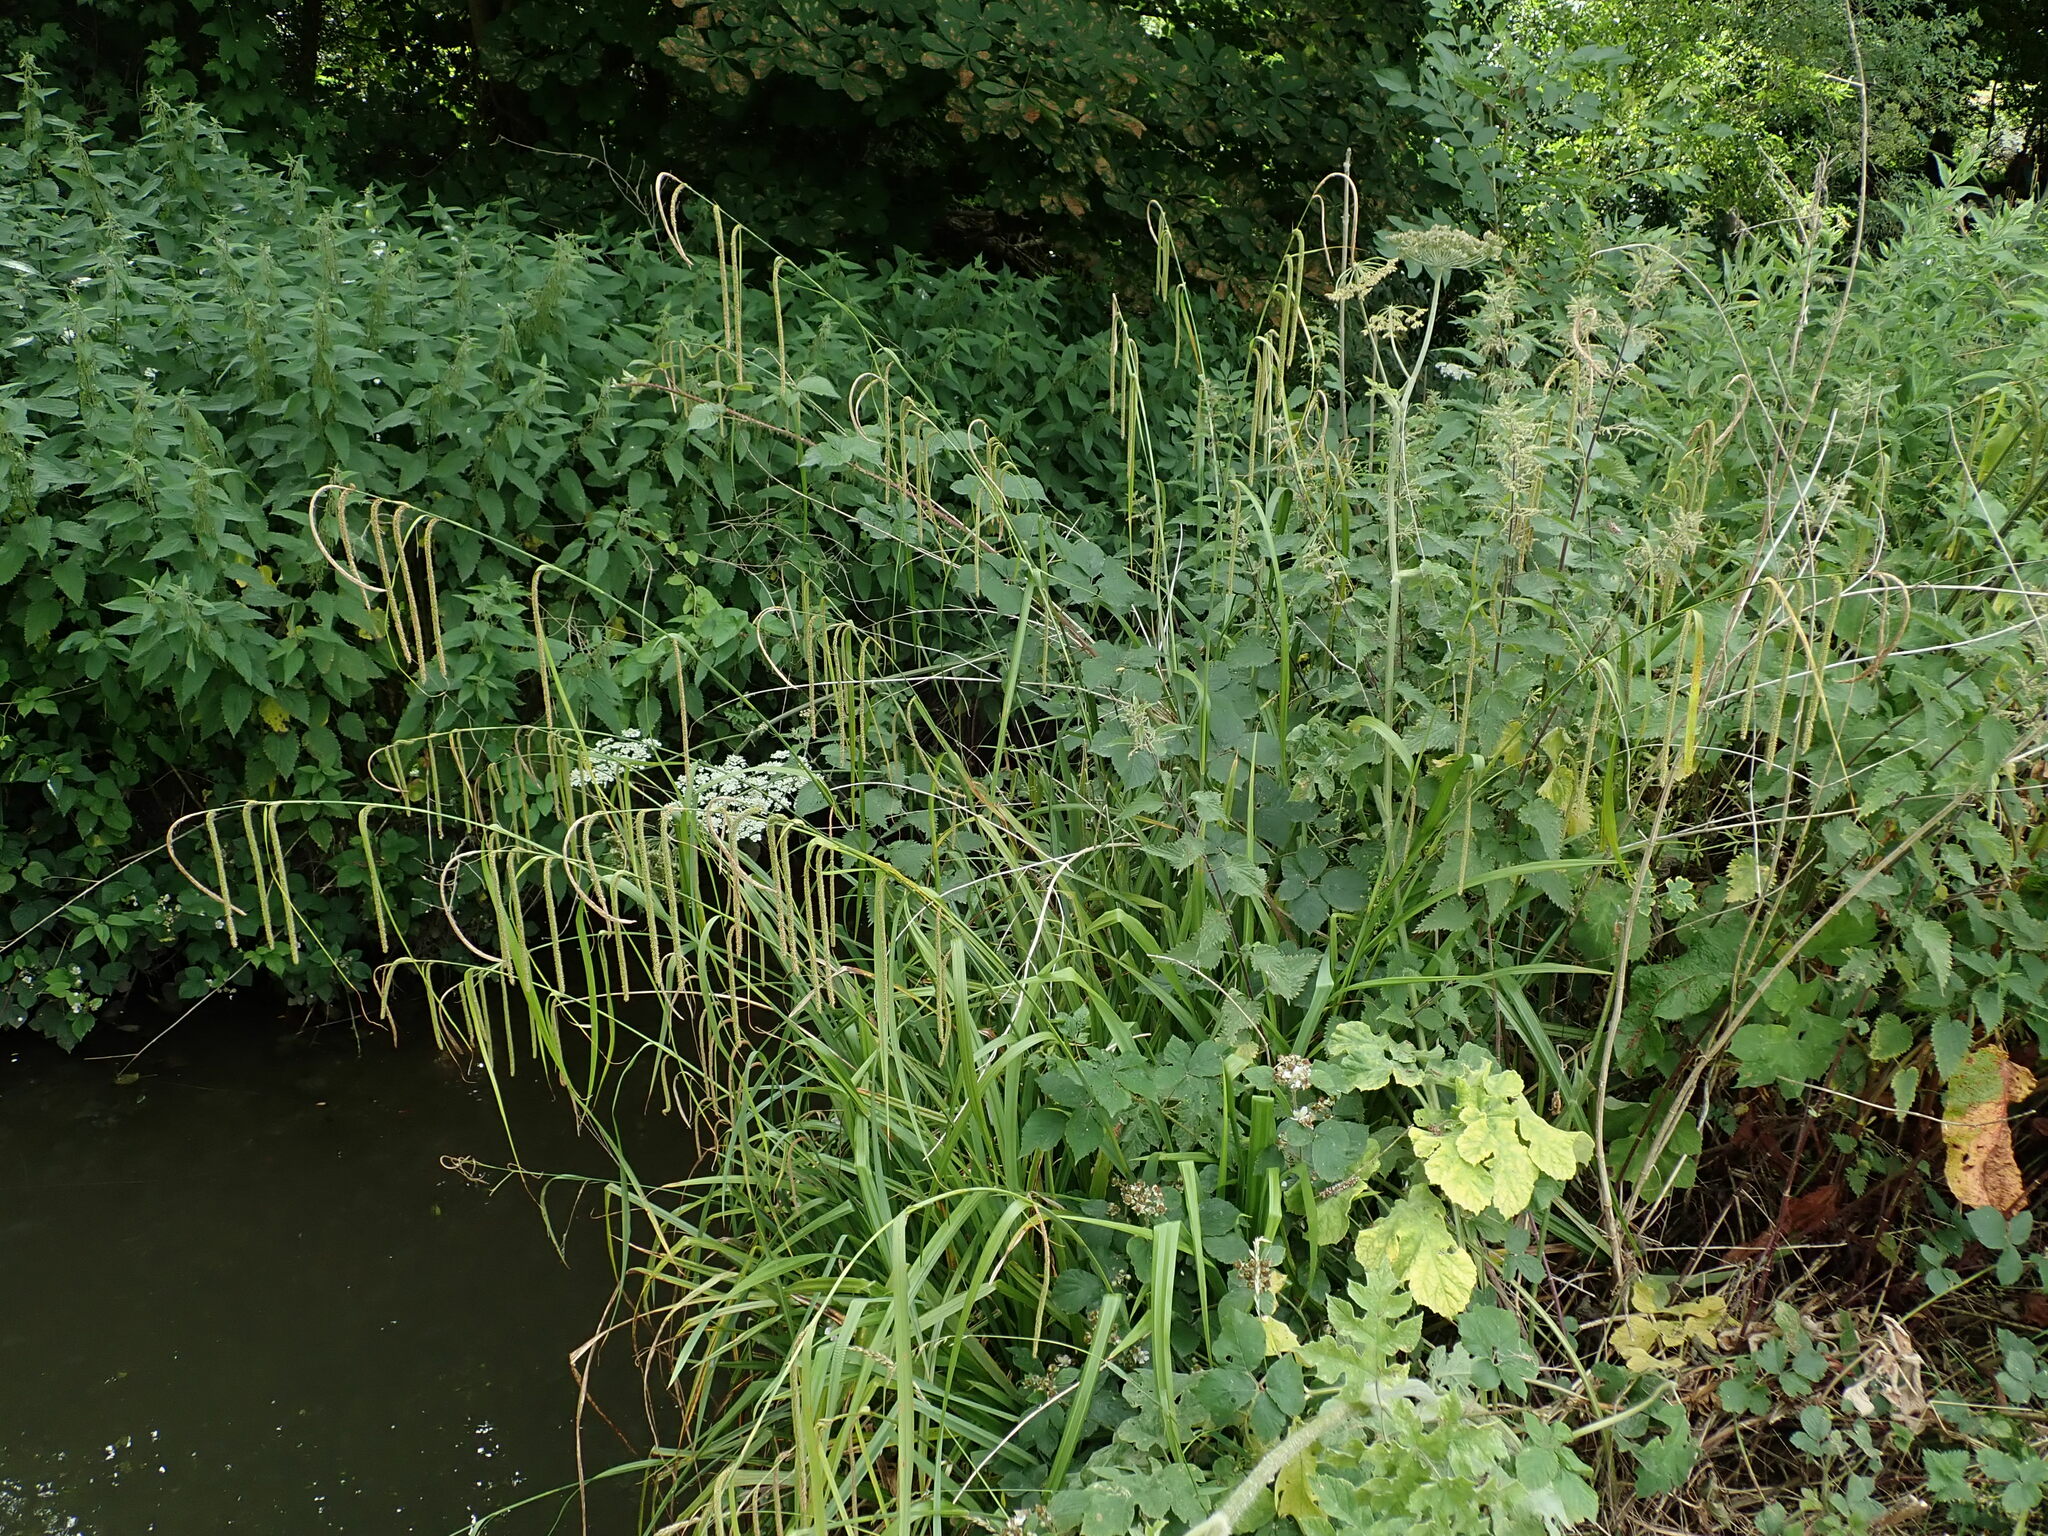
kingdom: Plantae
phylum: Tracheophyta
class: Liliopsida
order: Poales
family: Cyperaceae
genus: Carex
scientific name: Carex pendula
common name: Pendulous sedge
